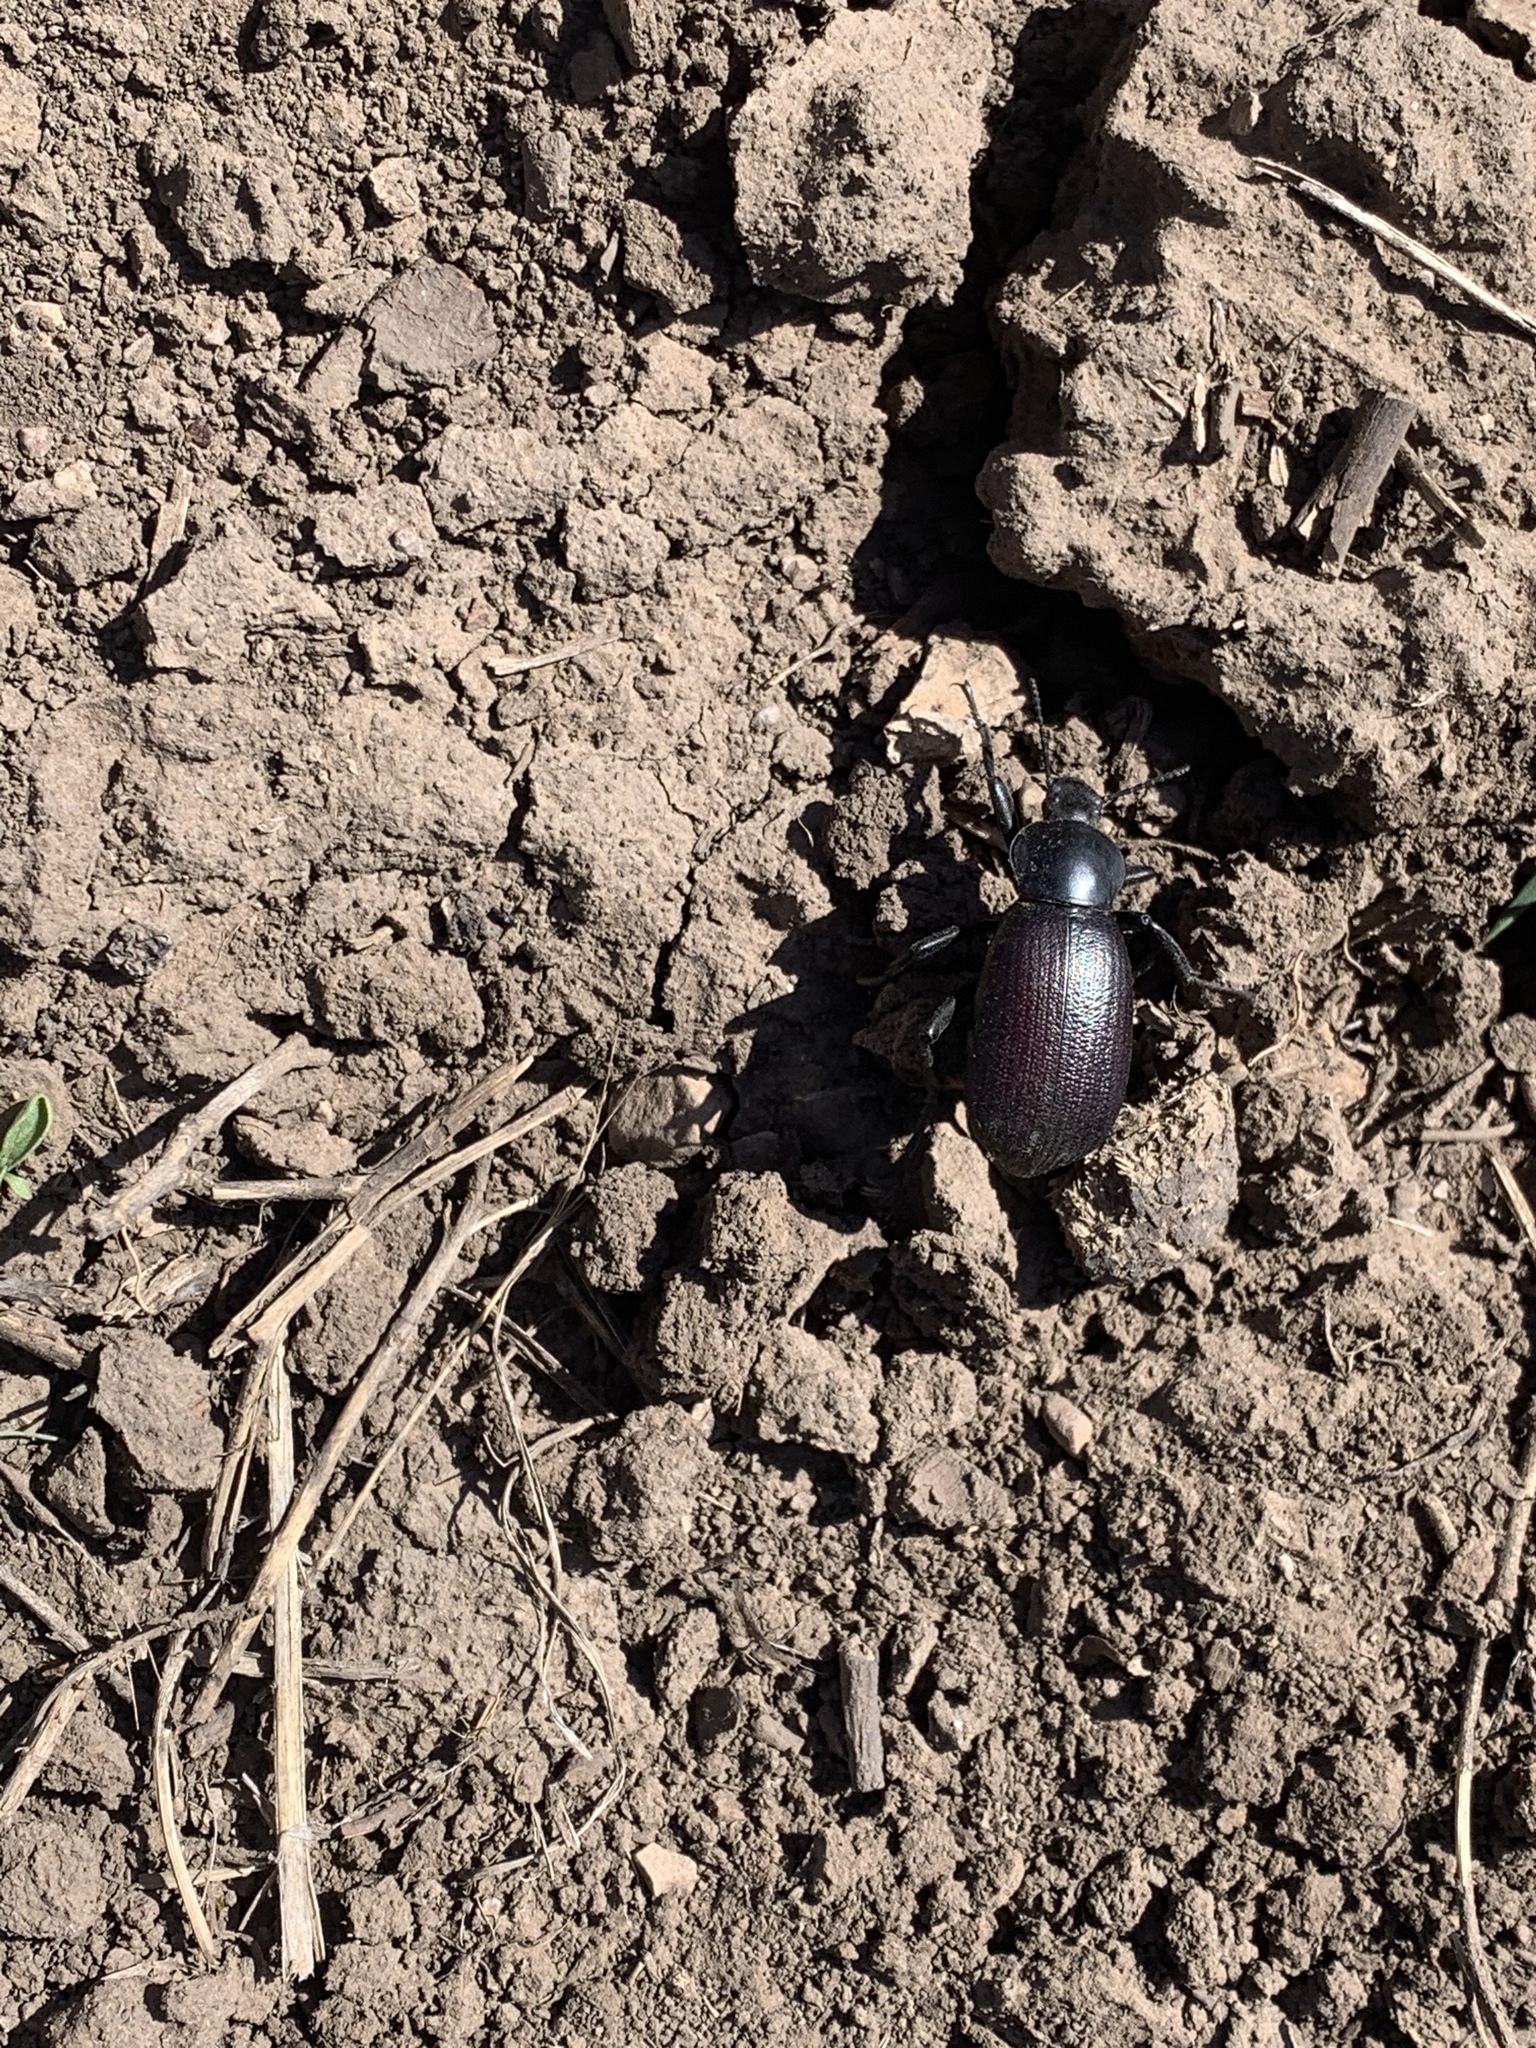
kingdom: Animalia
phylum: Arthropoda
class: Insecta
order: Coleoptera
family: Tenebrionidae
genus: Eleodes
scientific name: Eleodes obscura
